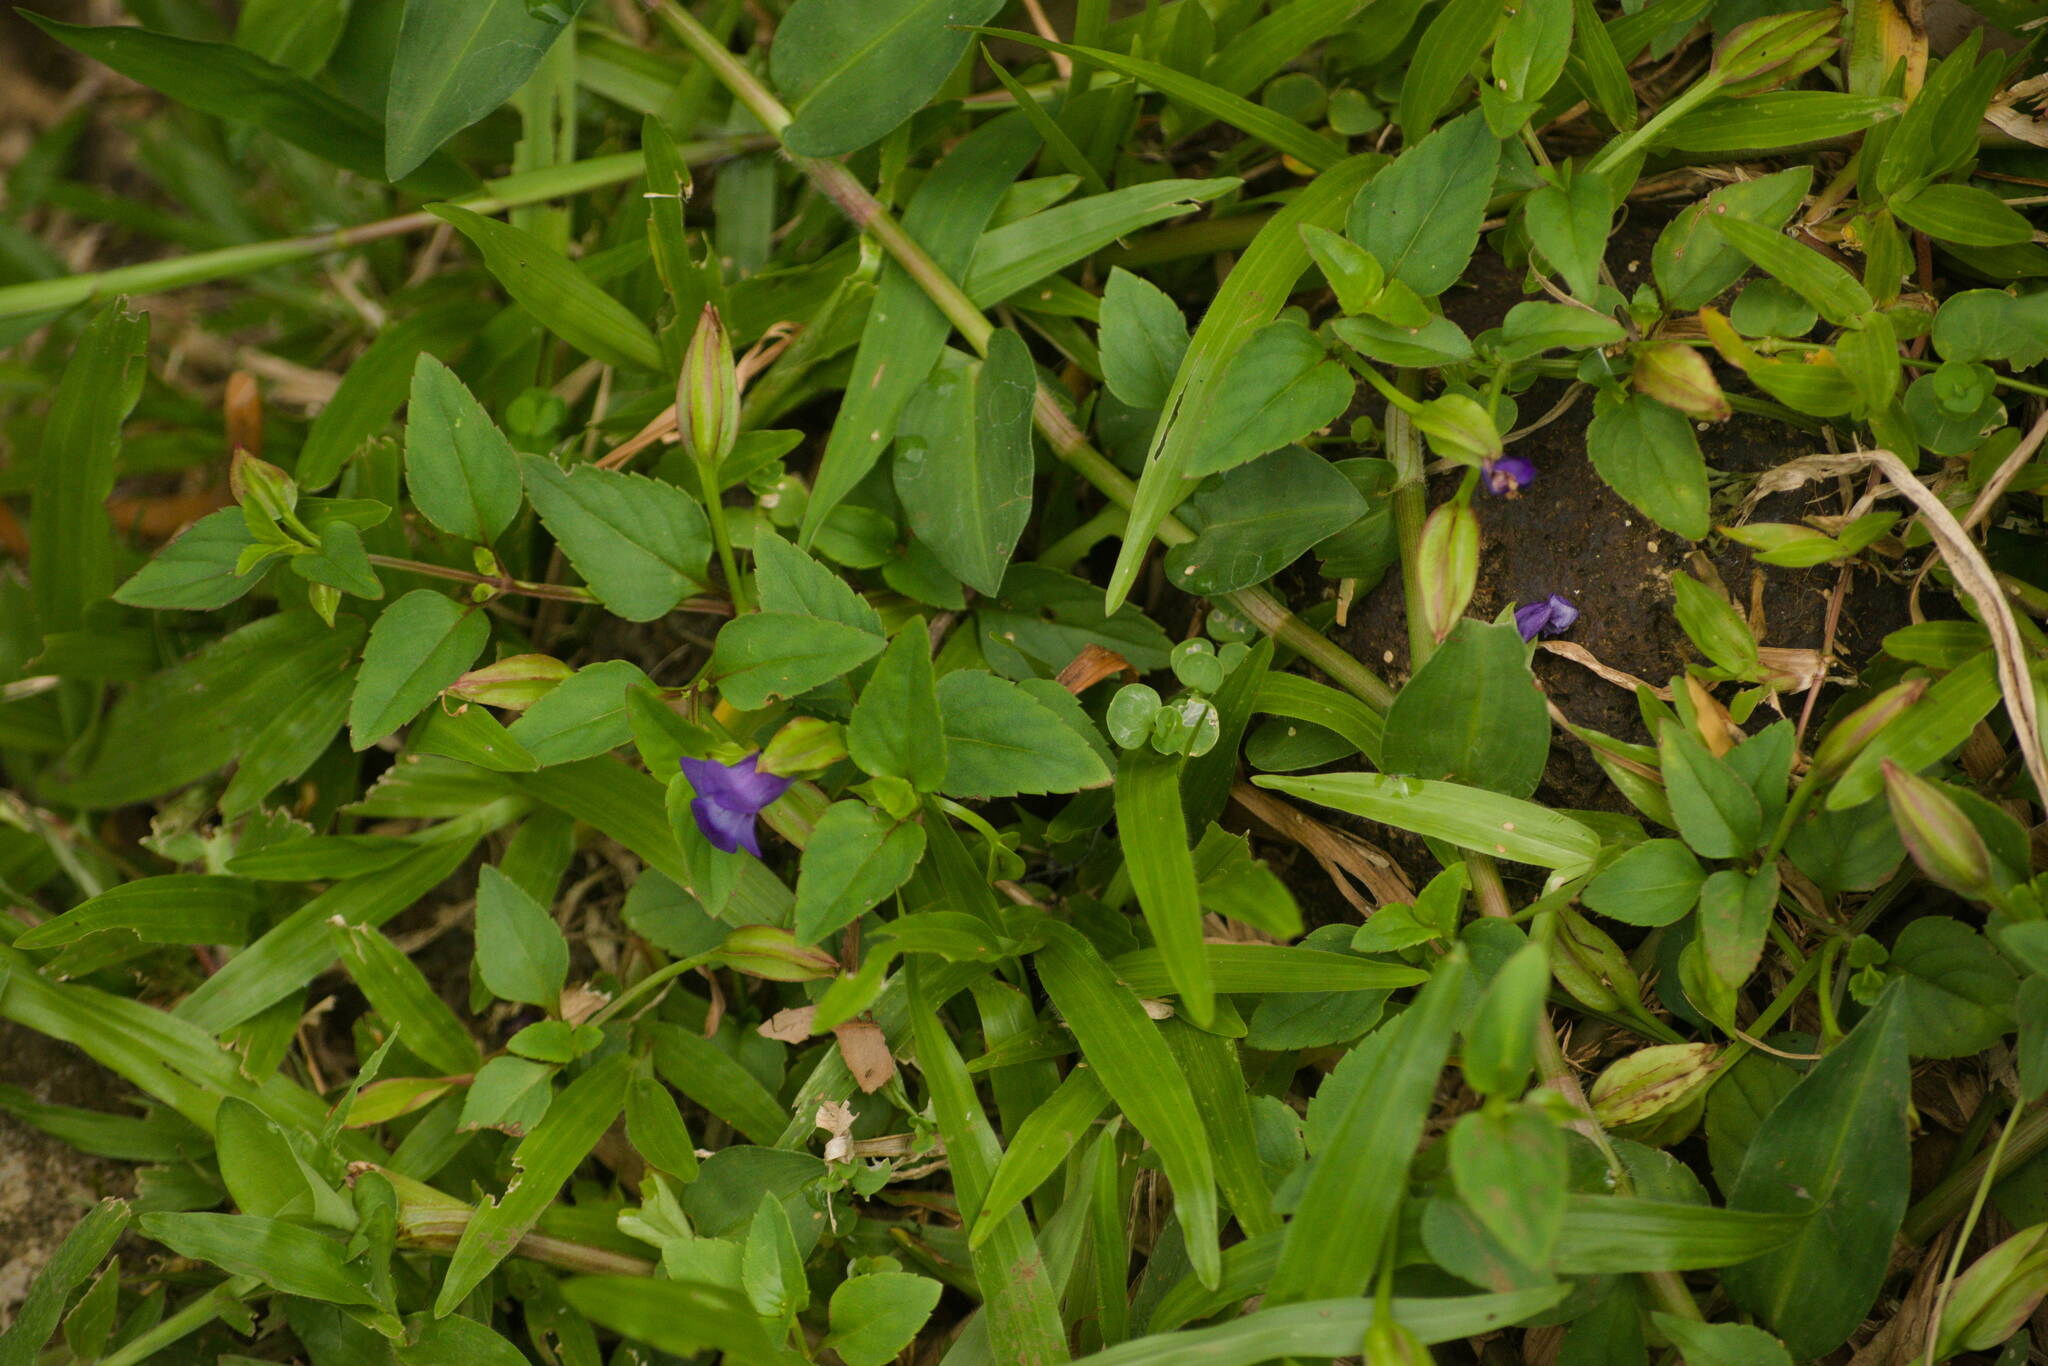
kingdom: Plantae
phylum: Tracheophyta
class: Magnoliopsida
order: Lamiales
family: Linderniaceae
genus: Torenia
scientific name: Torenia asiatica
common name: Wishbone flower
